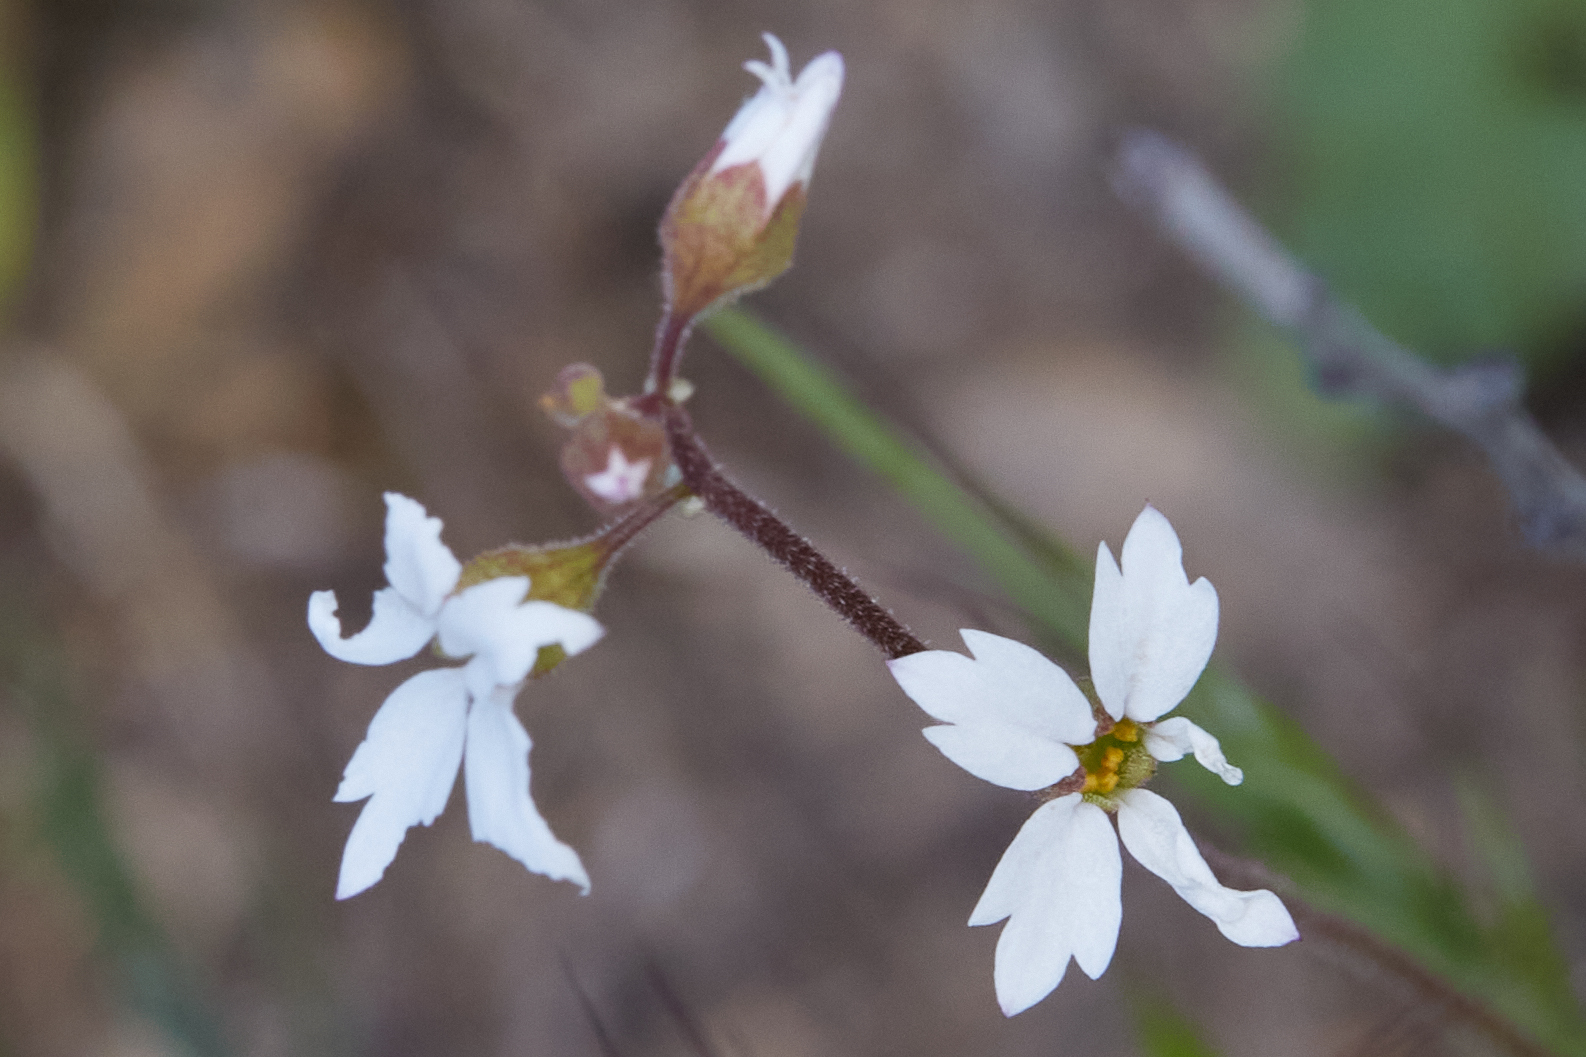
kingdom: Plantae
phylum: Tracheophyta
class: Magnoliopsida
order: Saxifragales
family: Saxifragaceae
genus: Lithophragma
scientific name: Lithophragma affine
